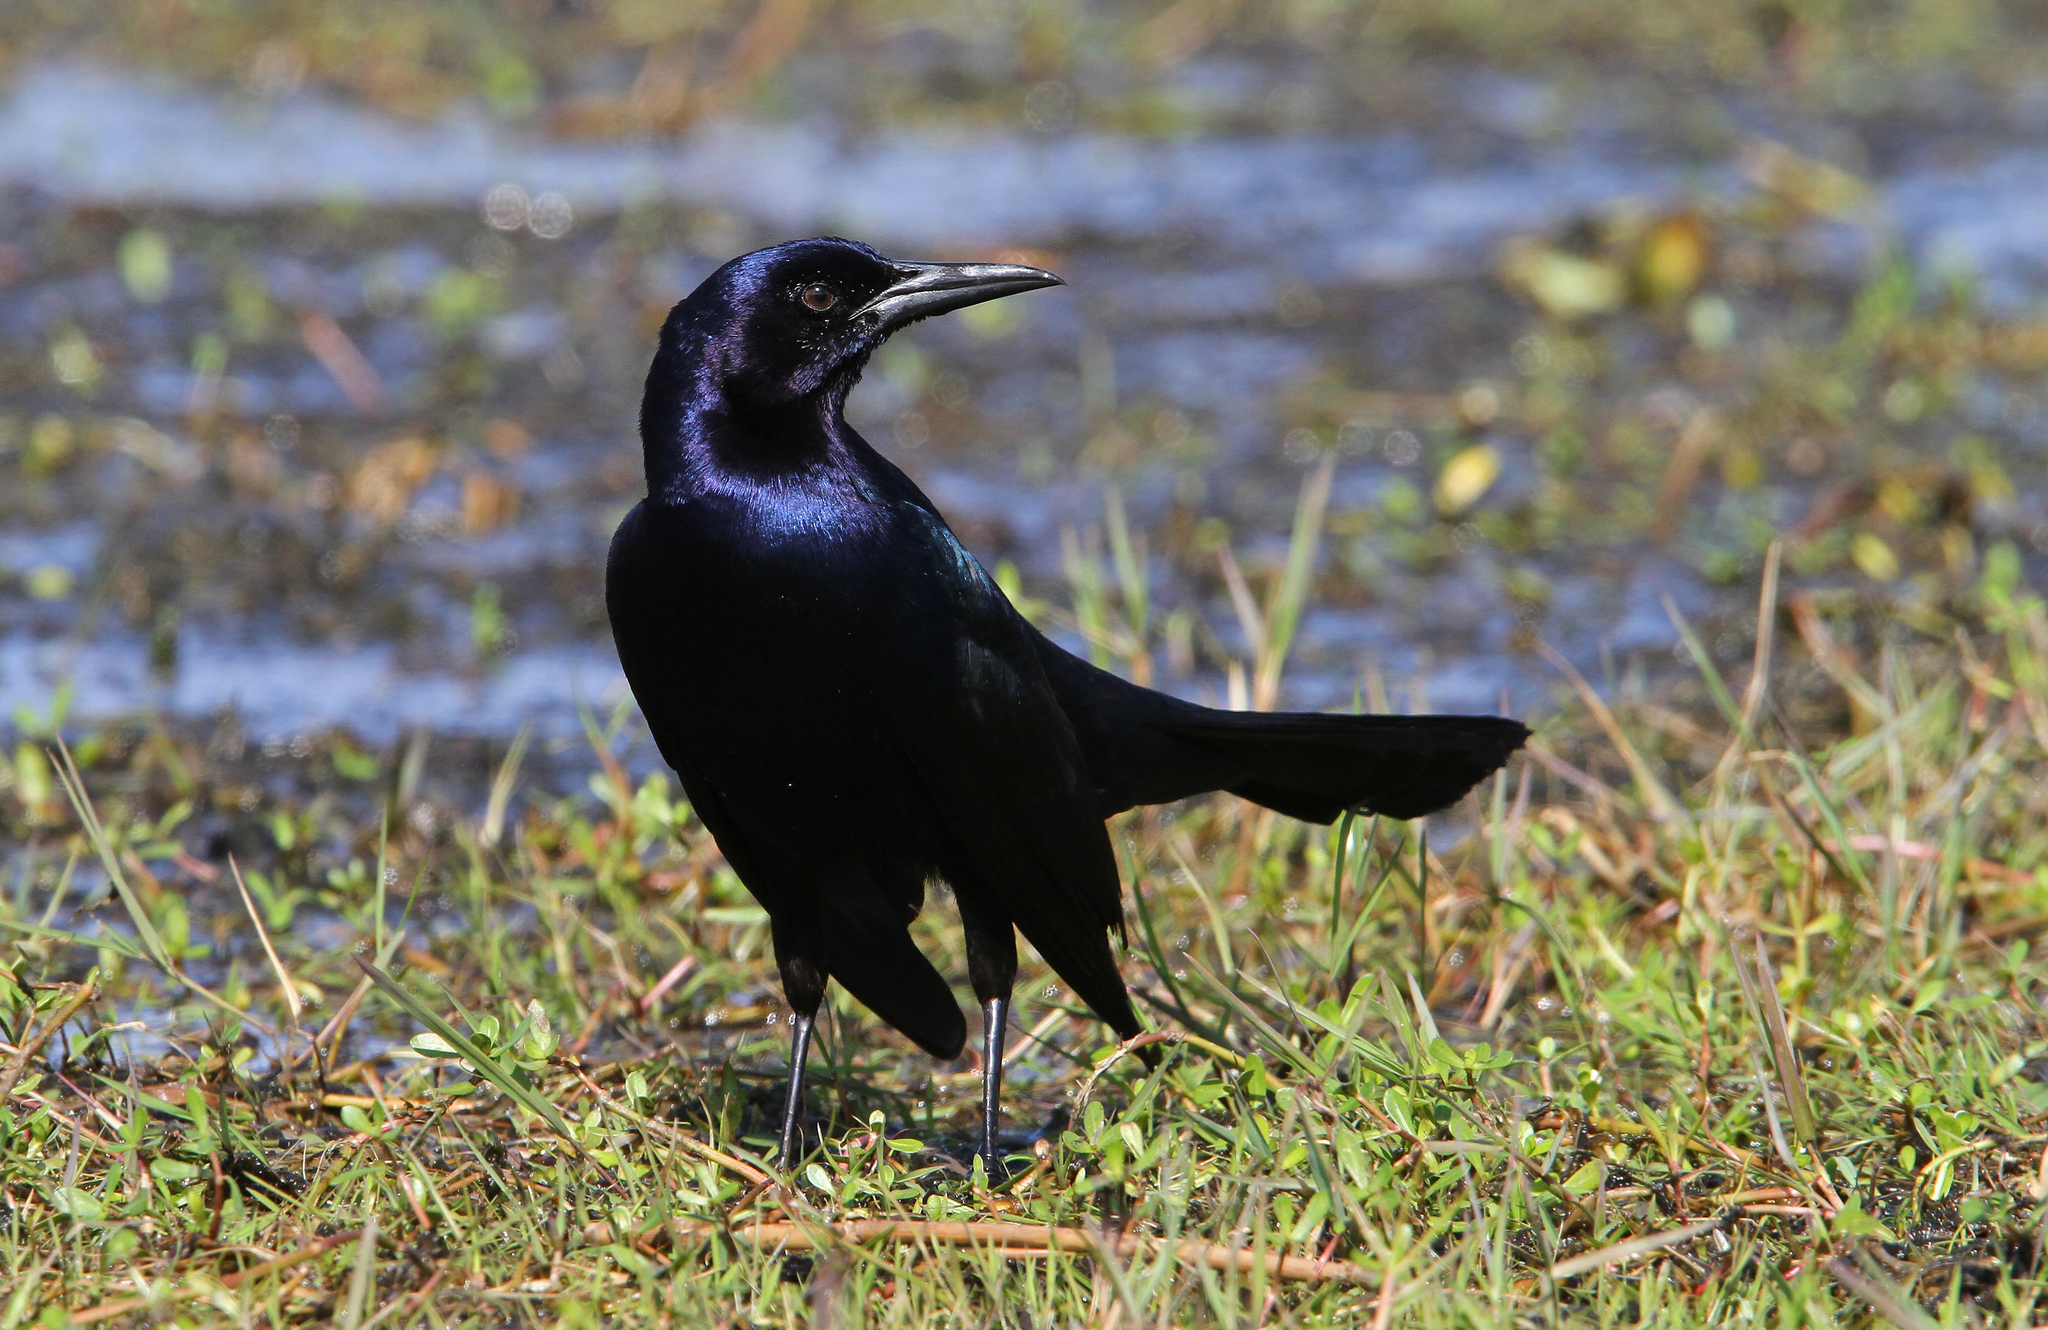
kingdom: Animalia
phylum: Chordata
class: Aves
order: Passeriformes
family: Icteridae
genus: Quiscalus
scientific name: Quiscalus major
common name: Boat-tailed grackle
